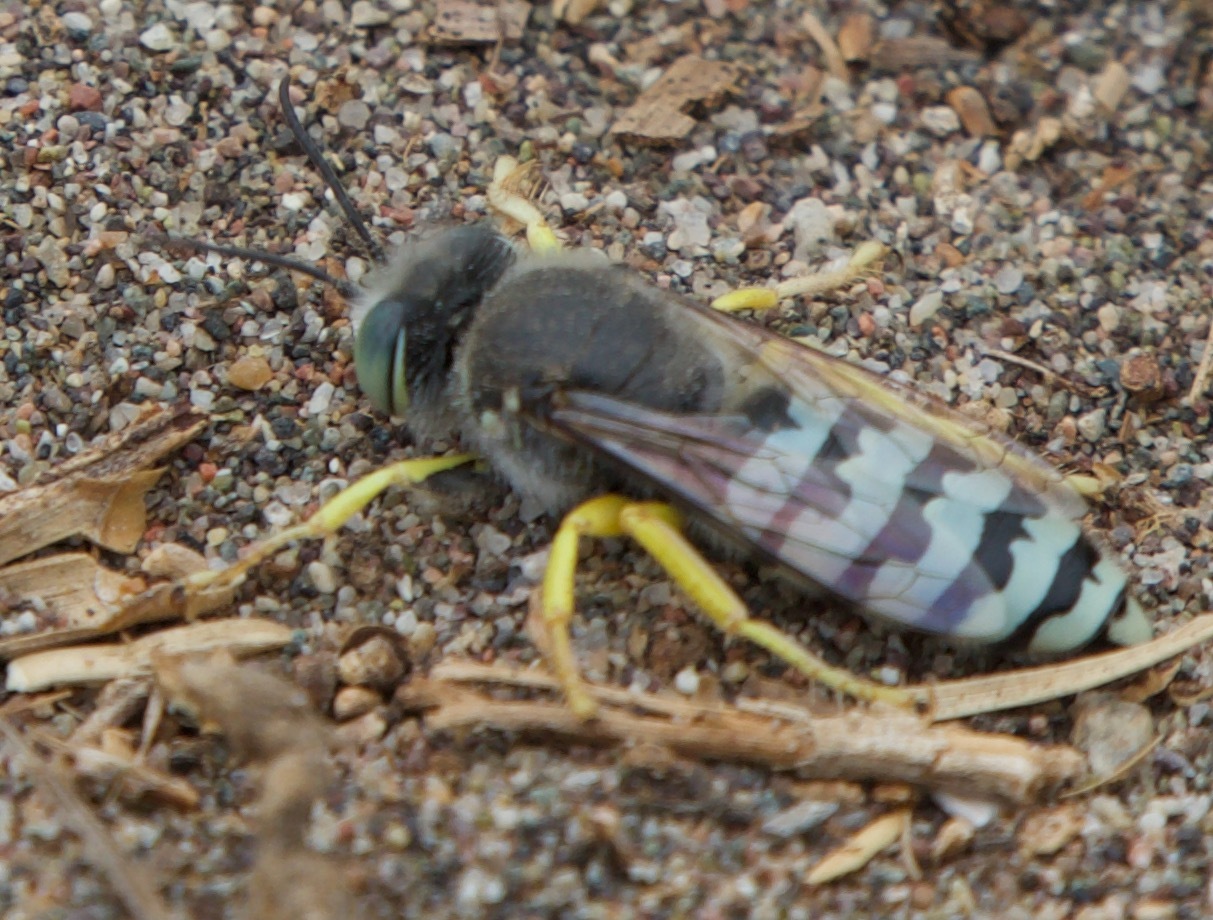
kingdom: Animalia
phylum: Arthropoda
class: Insecta
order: Hymenoptera
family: Crabronidae
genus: Bembix
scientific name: Bembix brullei
